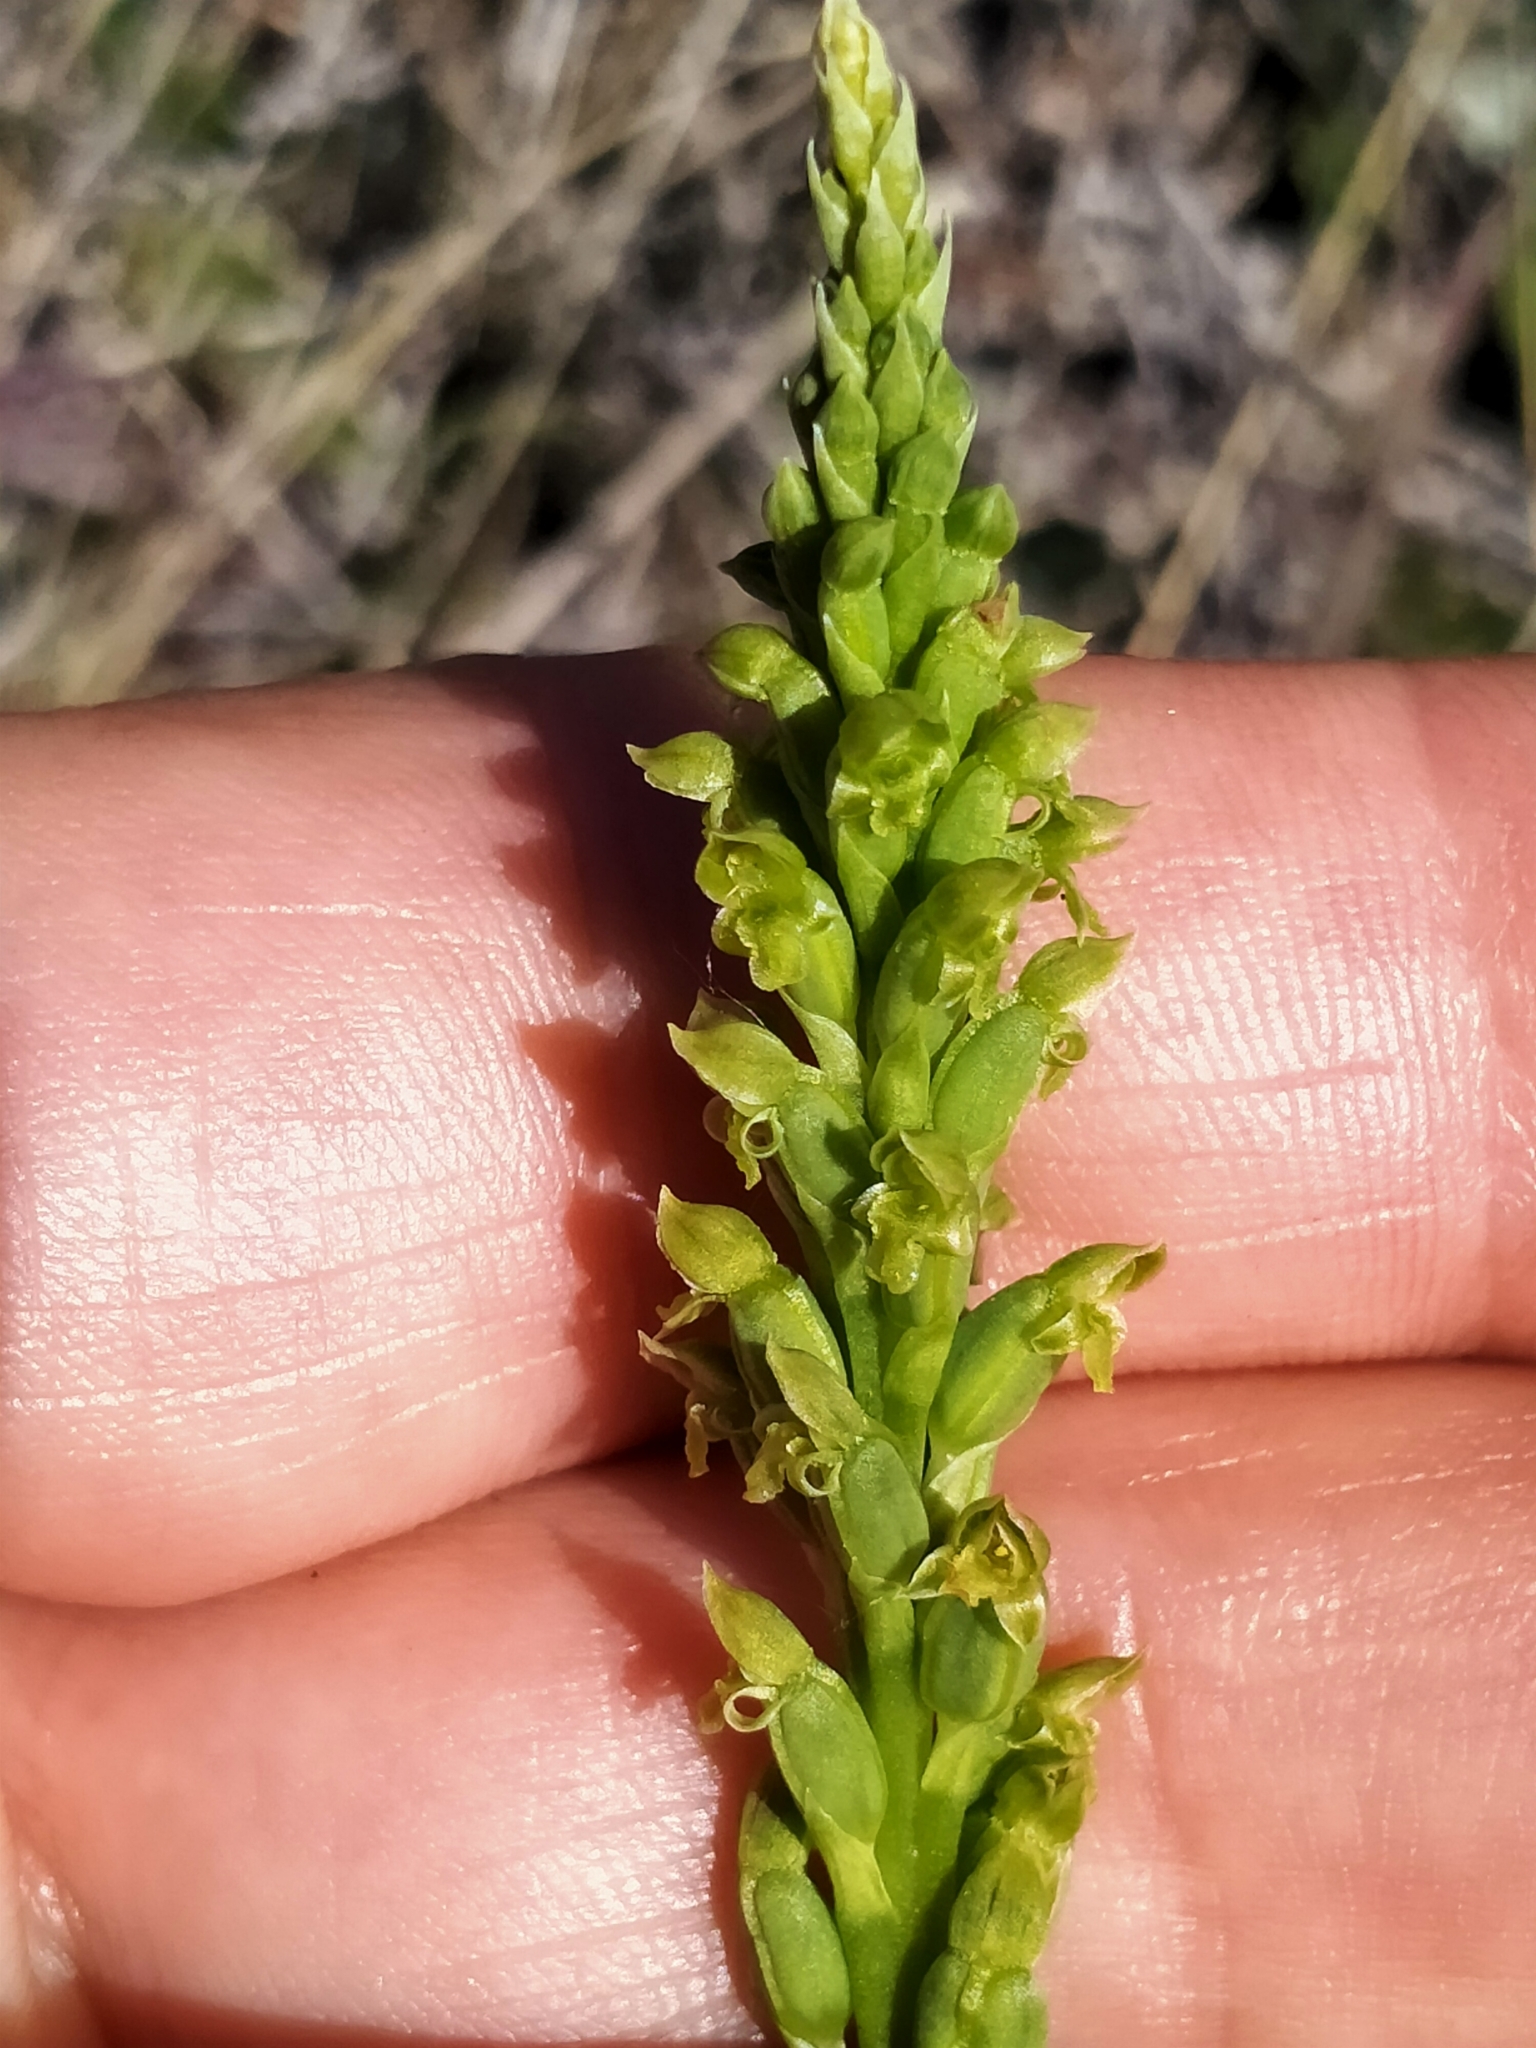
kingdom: Plantae
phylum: Tracheophyta
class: Liliopsida
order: Asparagales
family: Orchidaceae
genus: Microtis
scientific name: Microtis unifolia
